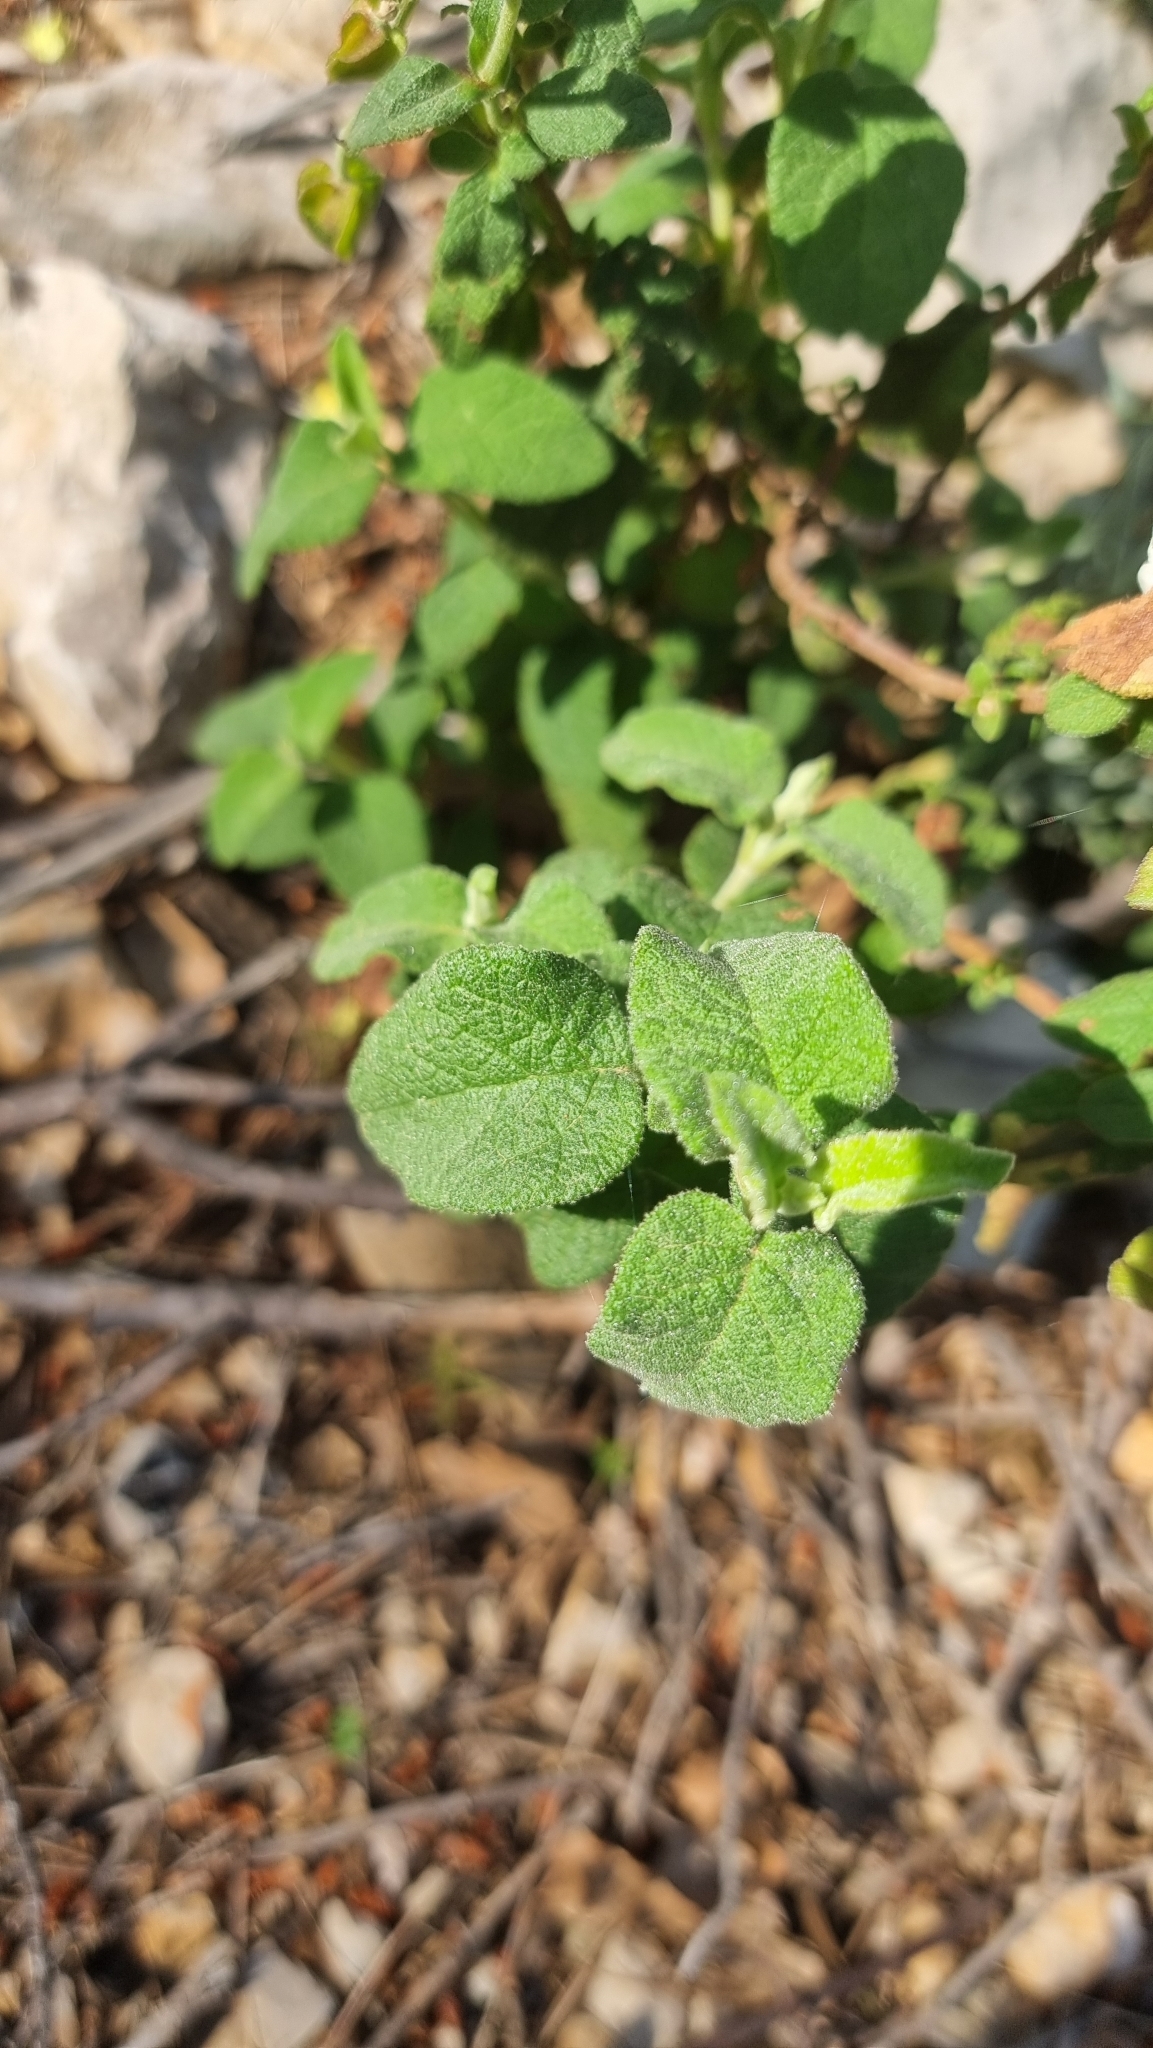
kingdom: Plantae
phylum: Tracheophyta
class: Magnoliopsida
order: Malvales
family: Cistaceae
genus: Cistus
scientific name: Cistus salviifolius
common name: Salvia cistus
